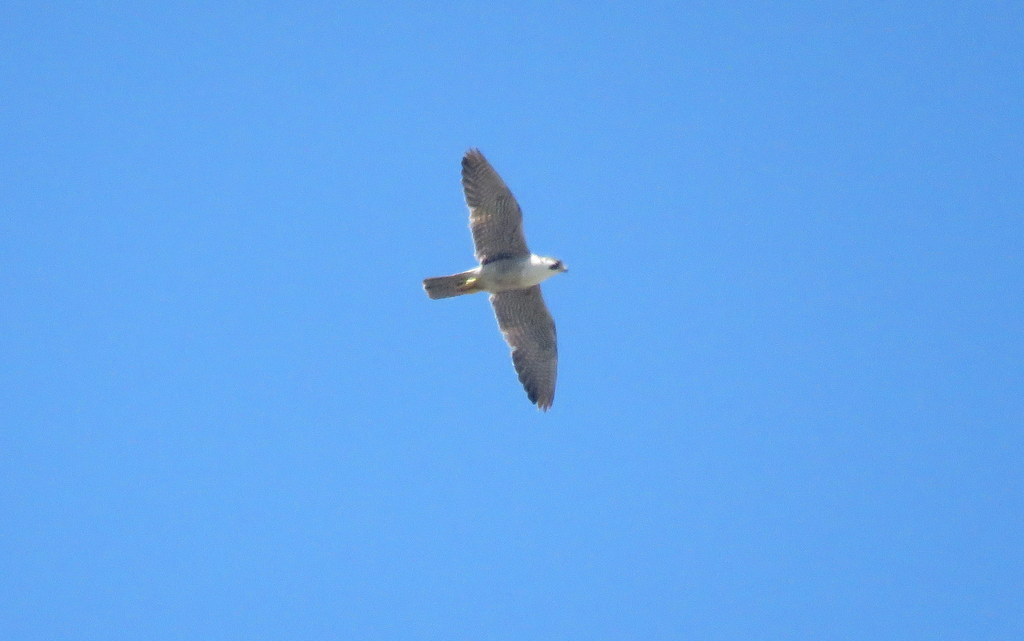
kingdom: Animalia
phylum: Chordata
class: Aves
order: Falconiformes
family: Falconidae
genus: Falco
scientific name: Falco peregrinus
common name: Peregrine falcon
